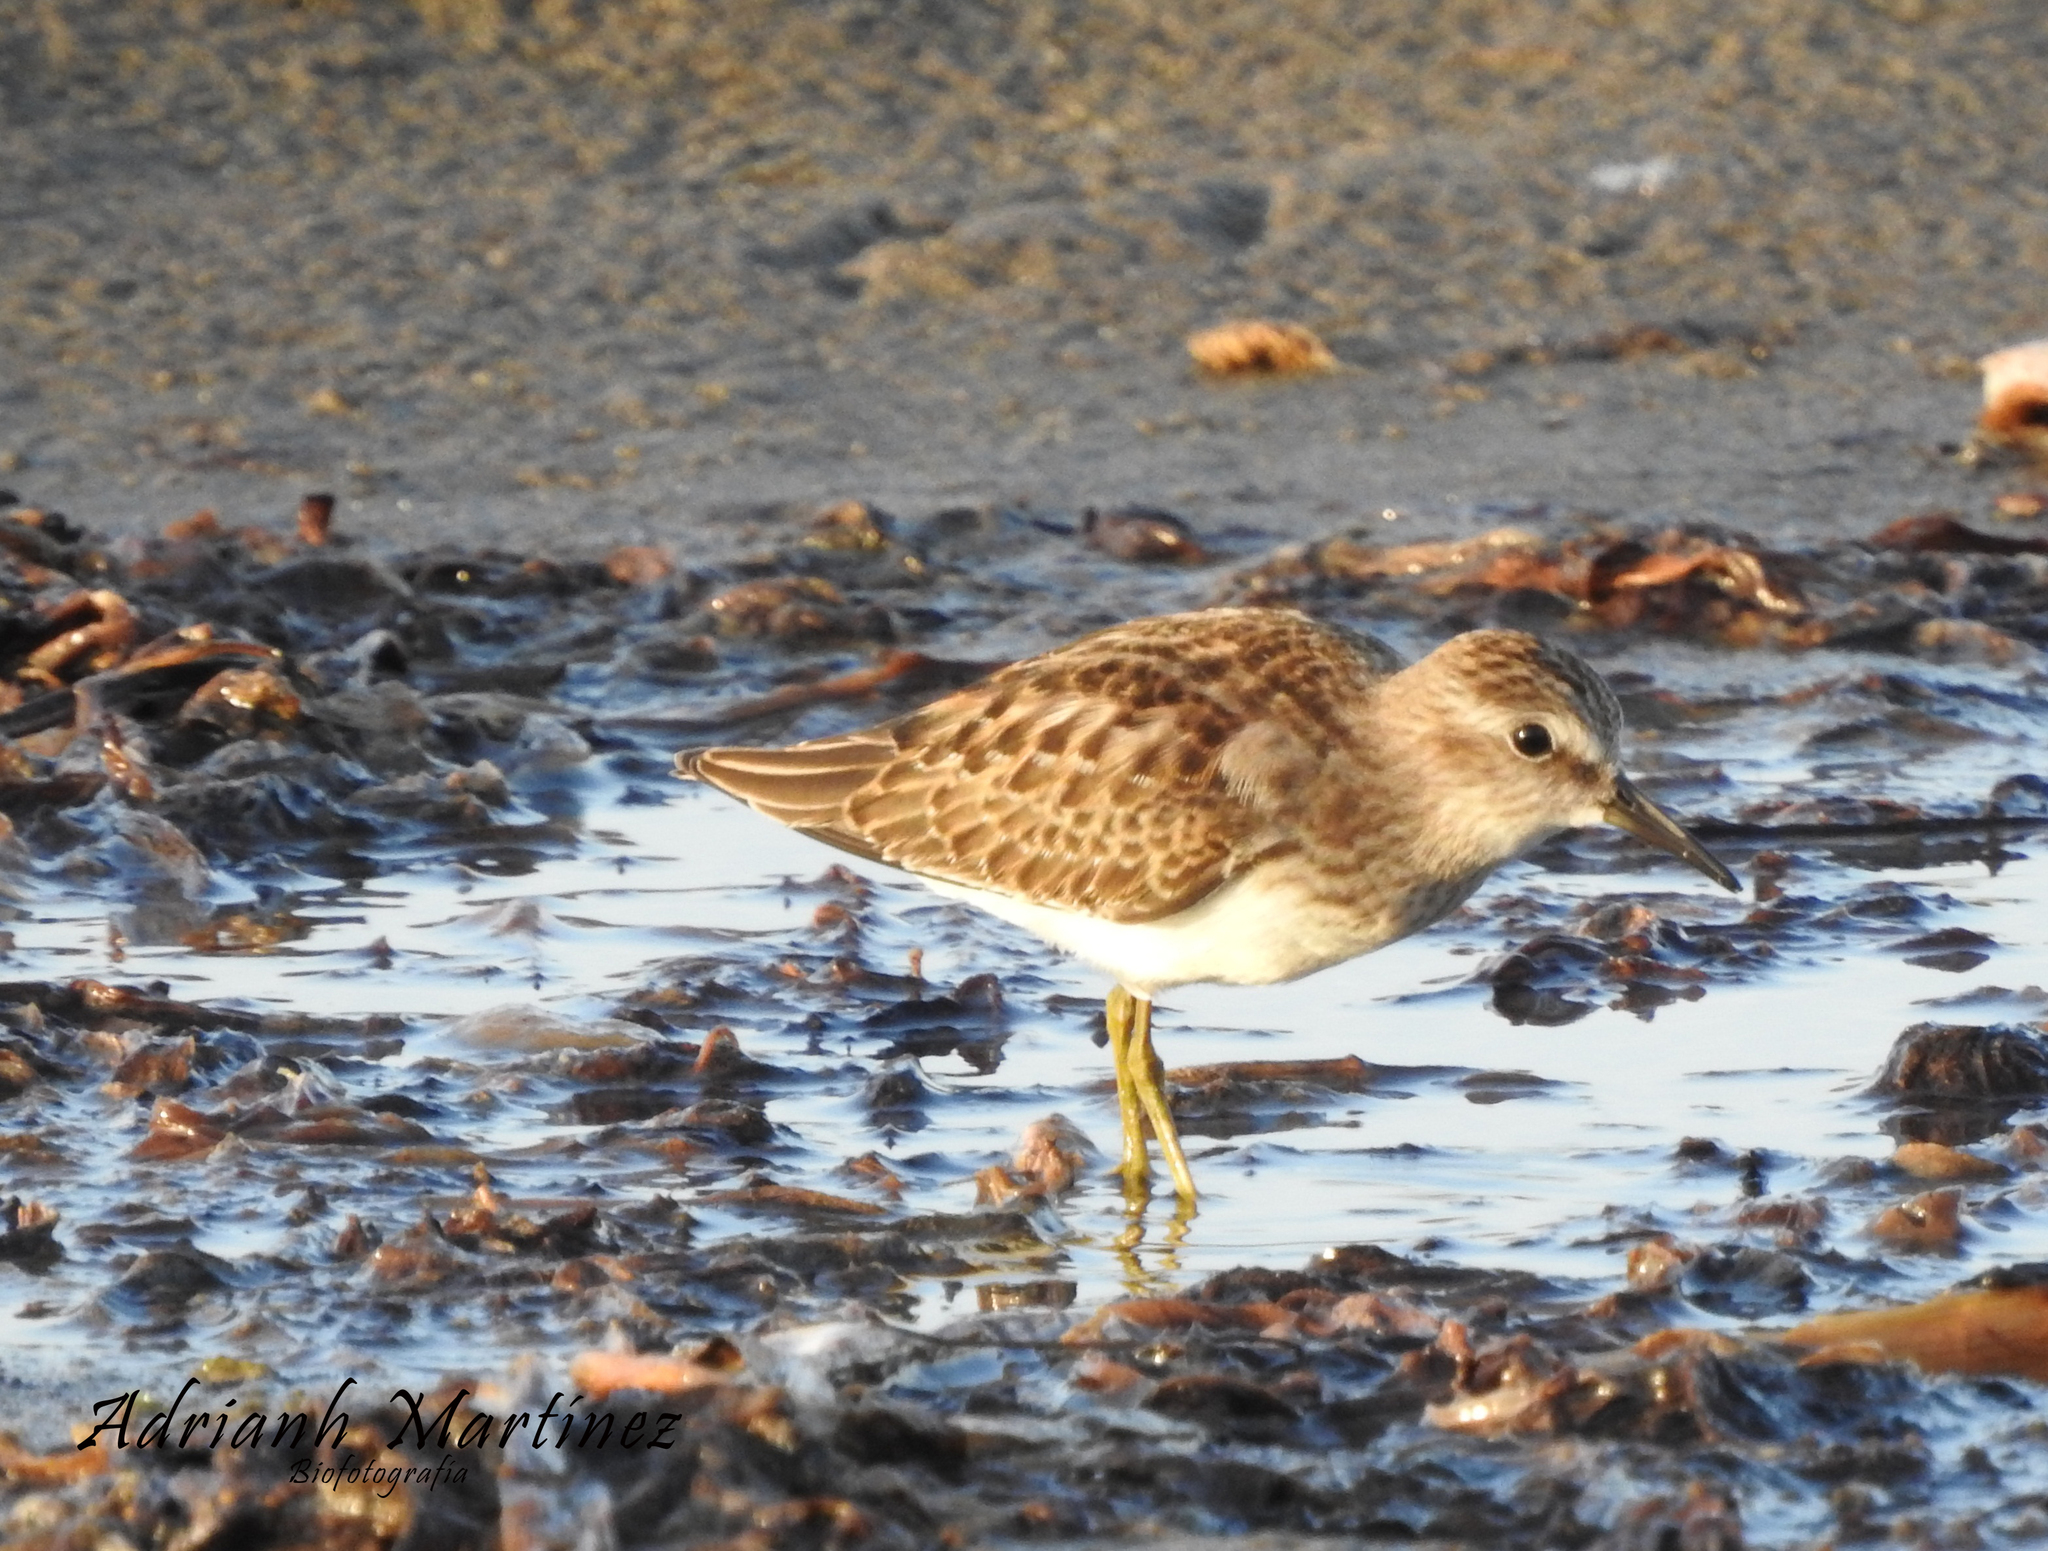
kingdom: Animalia
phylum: Chordata
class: Aves
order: Charadriiformes
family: Scolopacidae
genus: Calidris
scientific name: Calidris minutilla
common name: Least sandpiper
